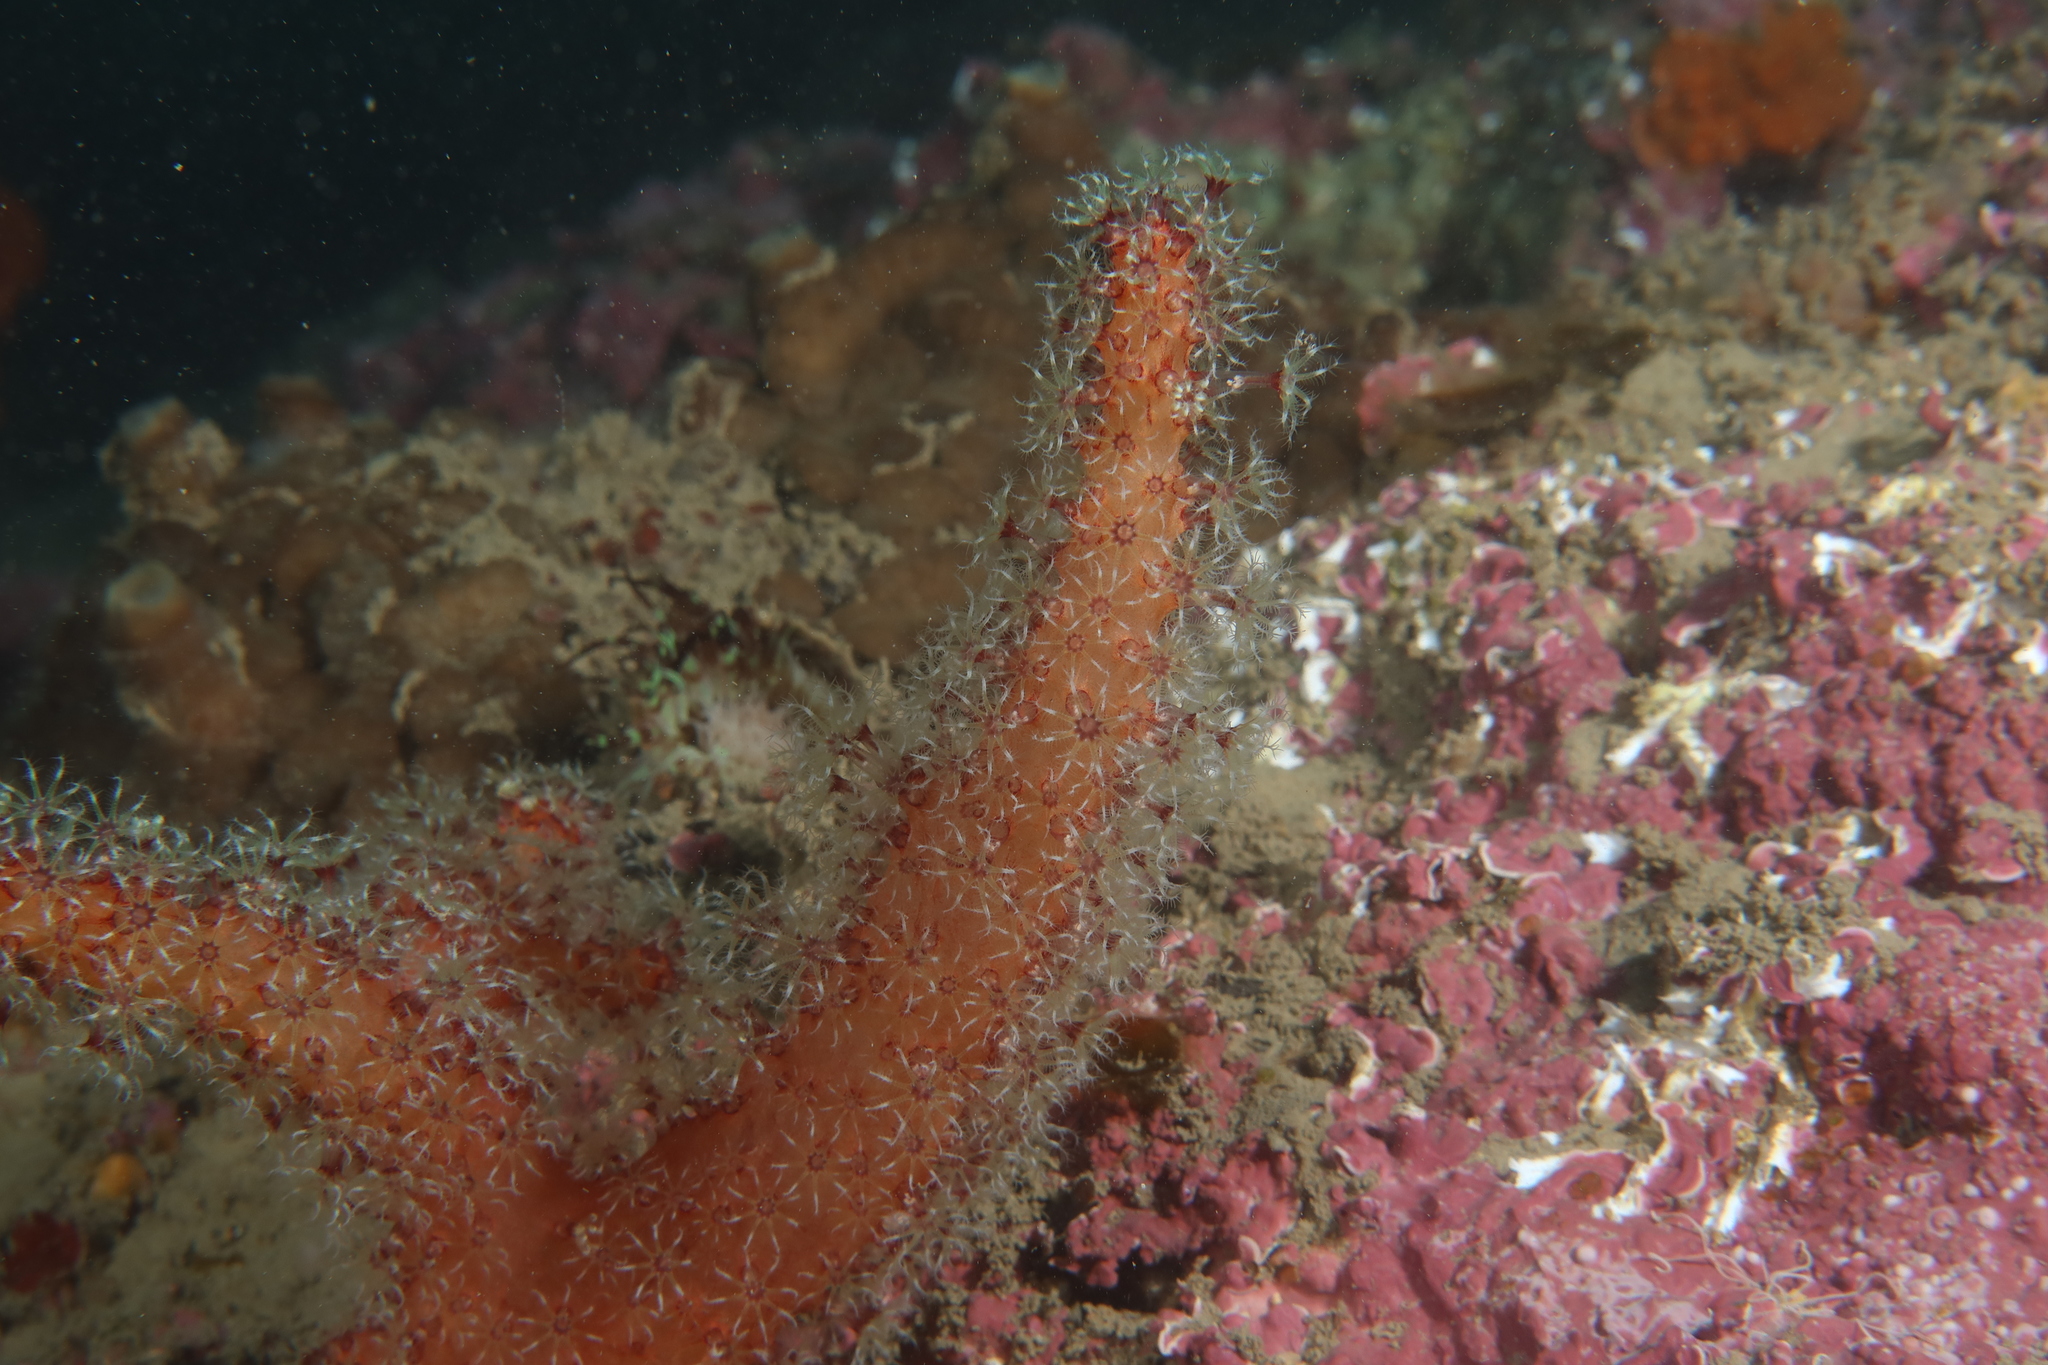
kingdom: Animalia
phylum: Cnidaria
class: Anthozoa
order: Malacalcyonacea
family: Alcyoniidae
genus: Alcyonium
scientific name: Alcyonium acaule
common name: Sea finger
